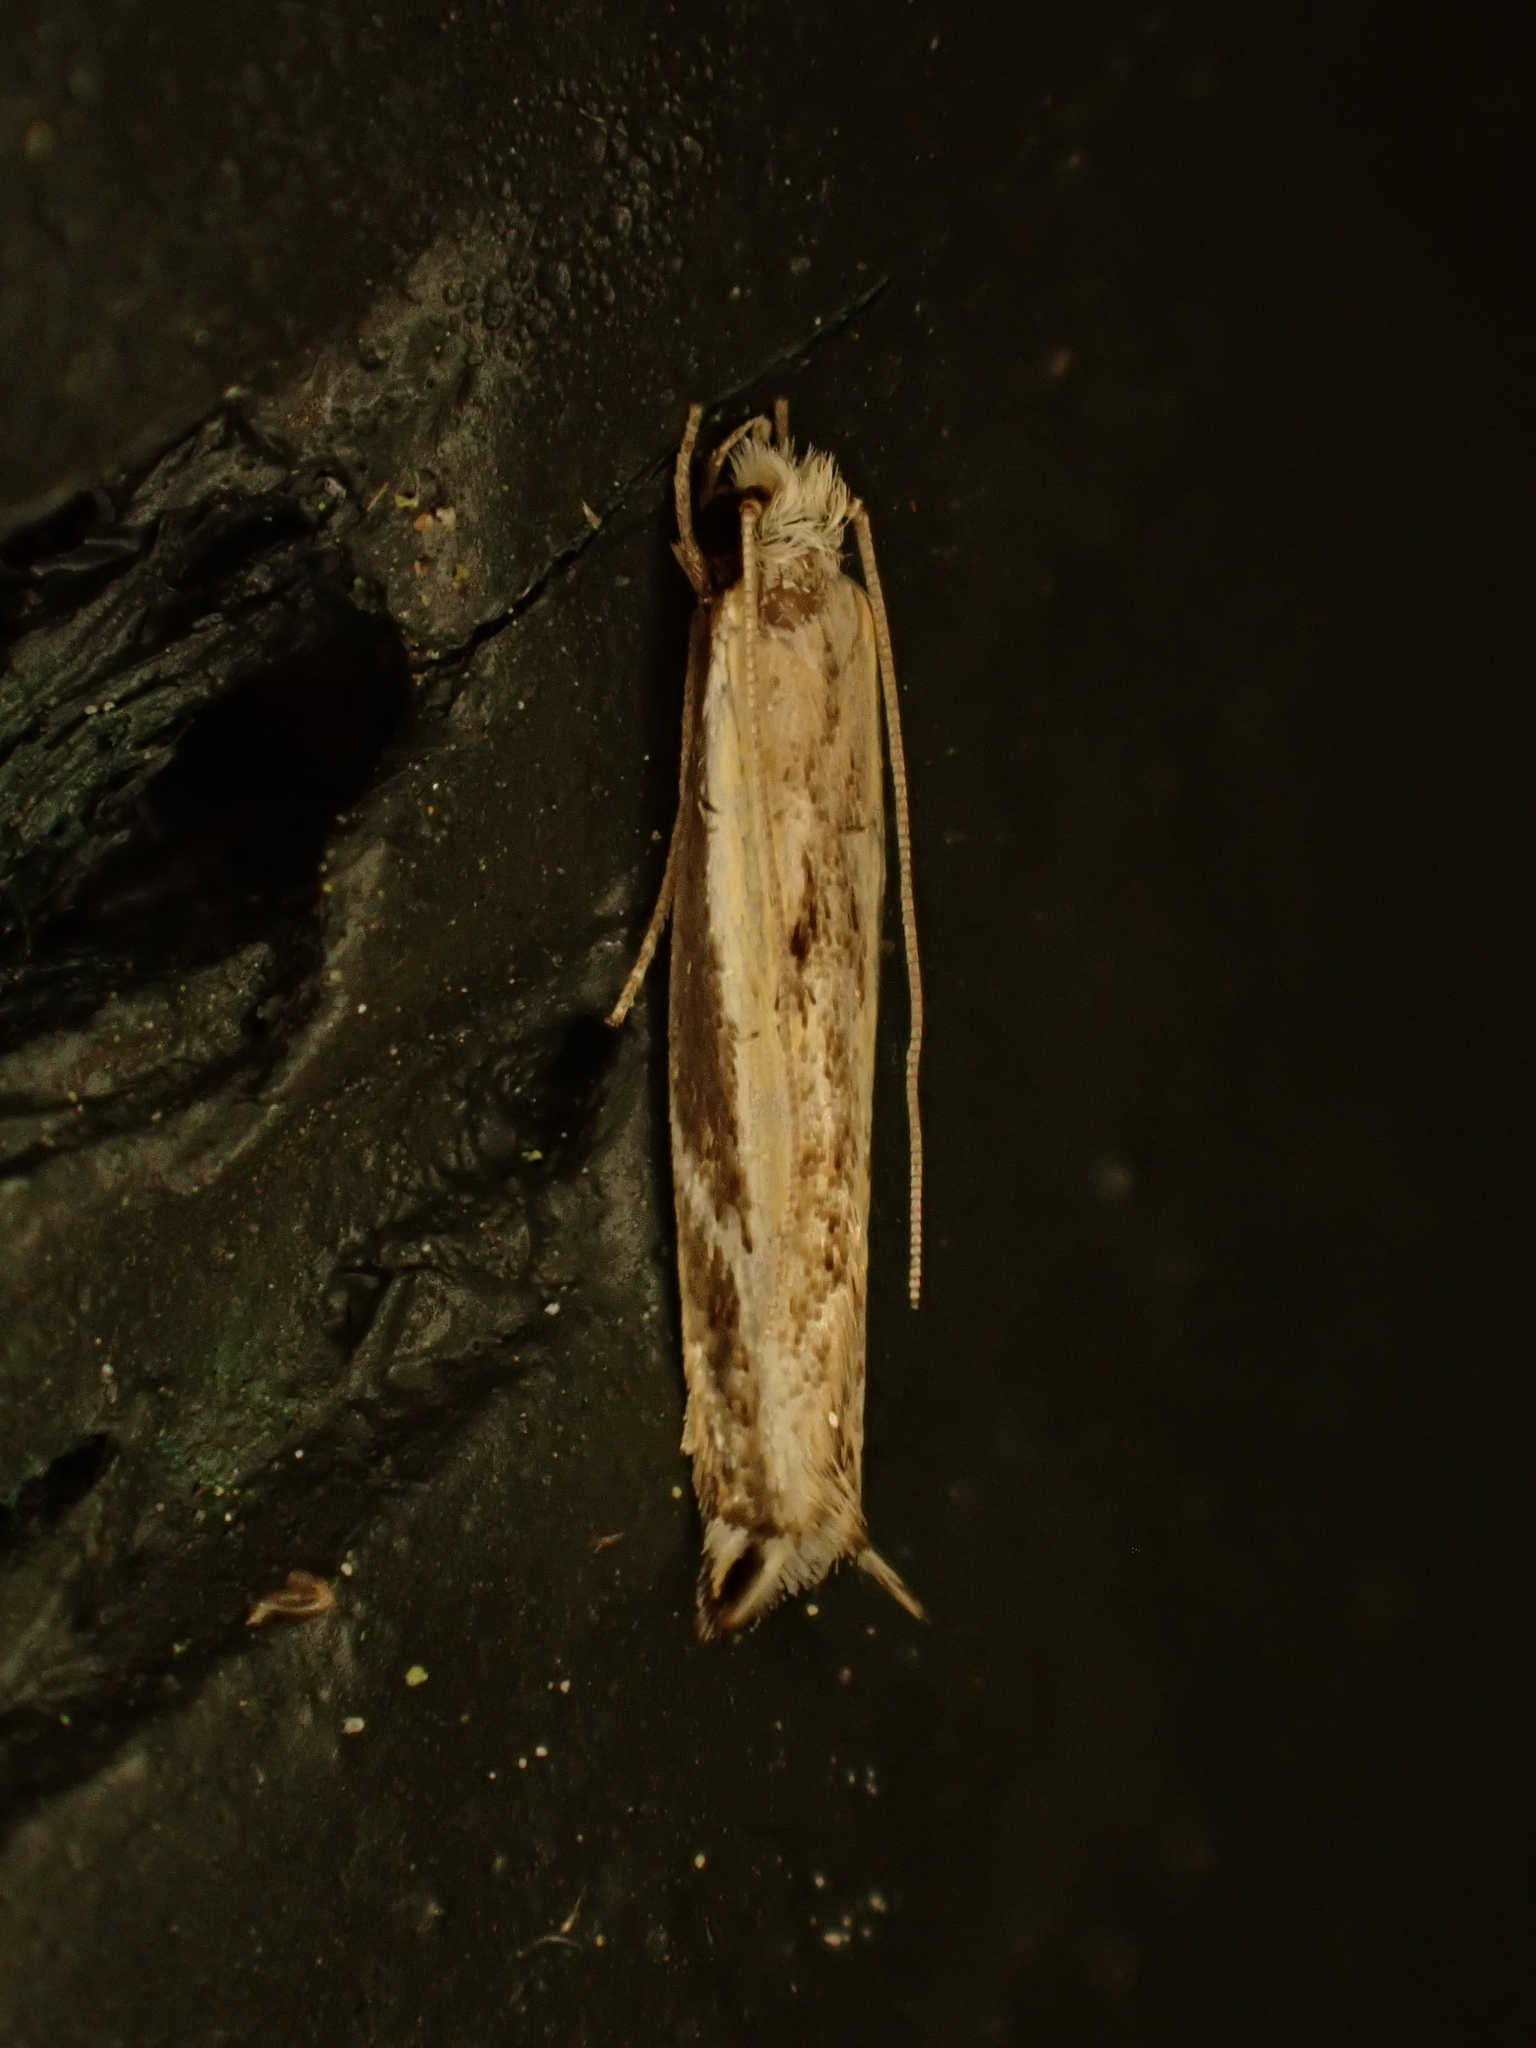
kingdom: Animalia
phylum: Arthropoda
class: Insecta
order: Lepidoptera
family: Tineidae
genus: Erechthias
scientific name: Erechthias terminella
